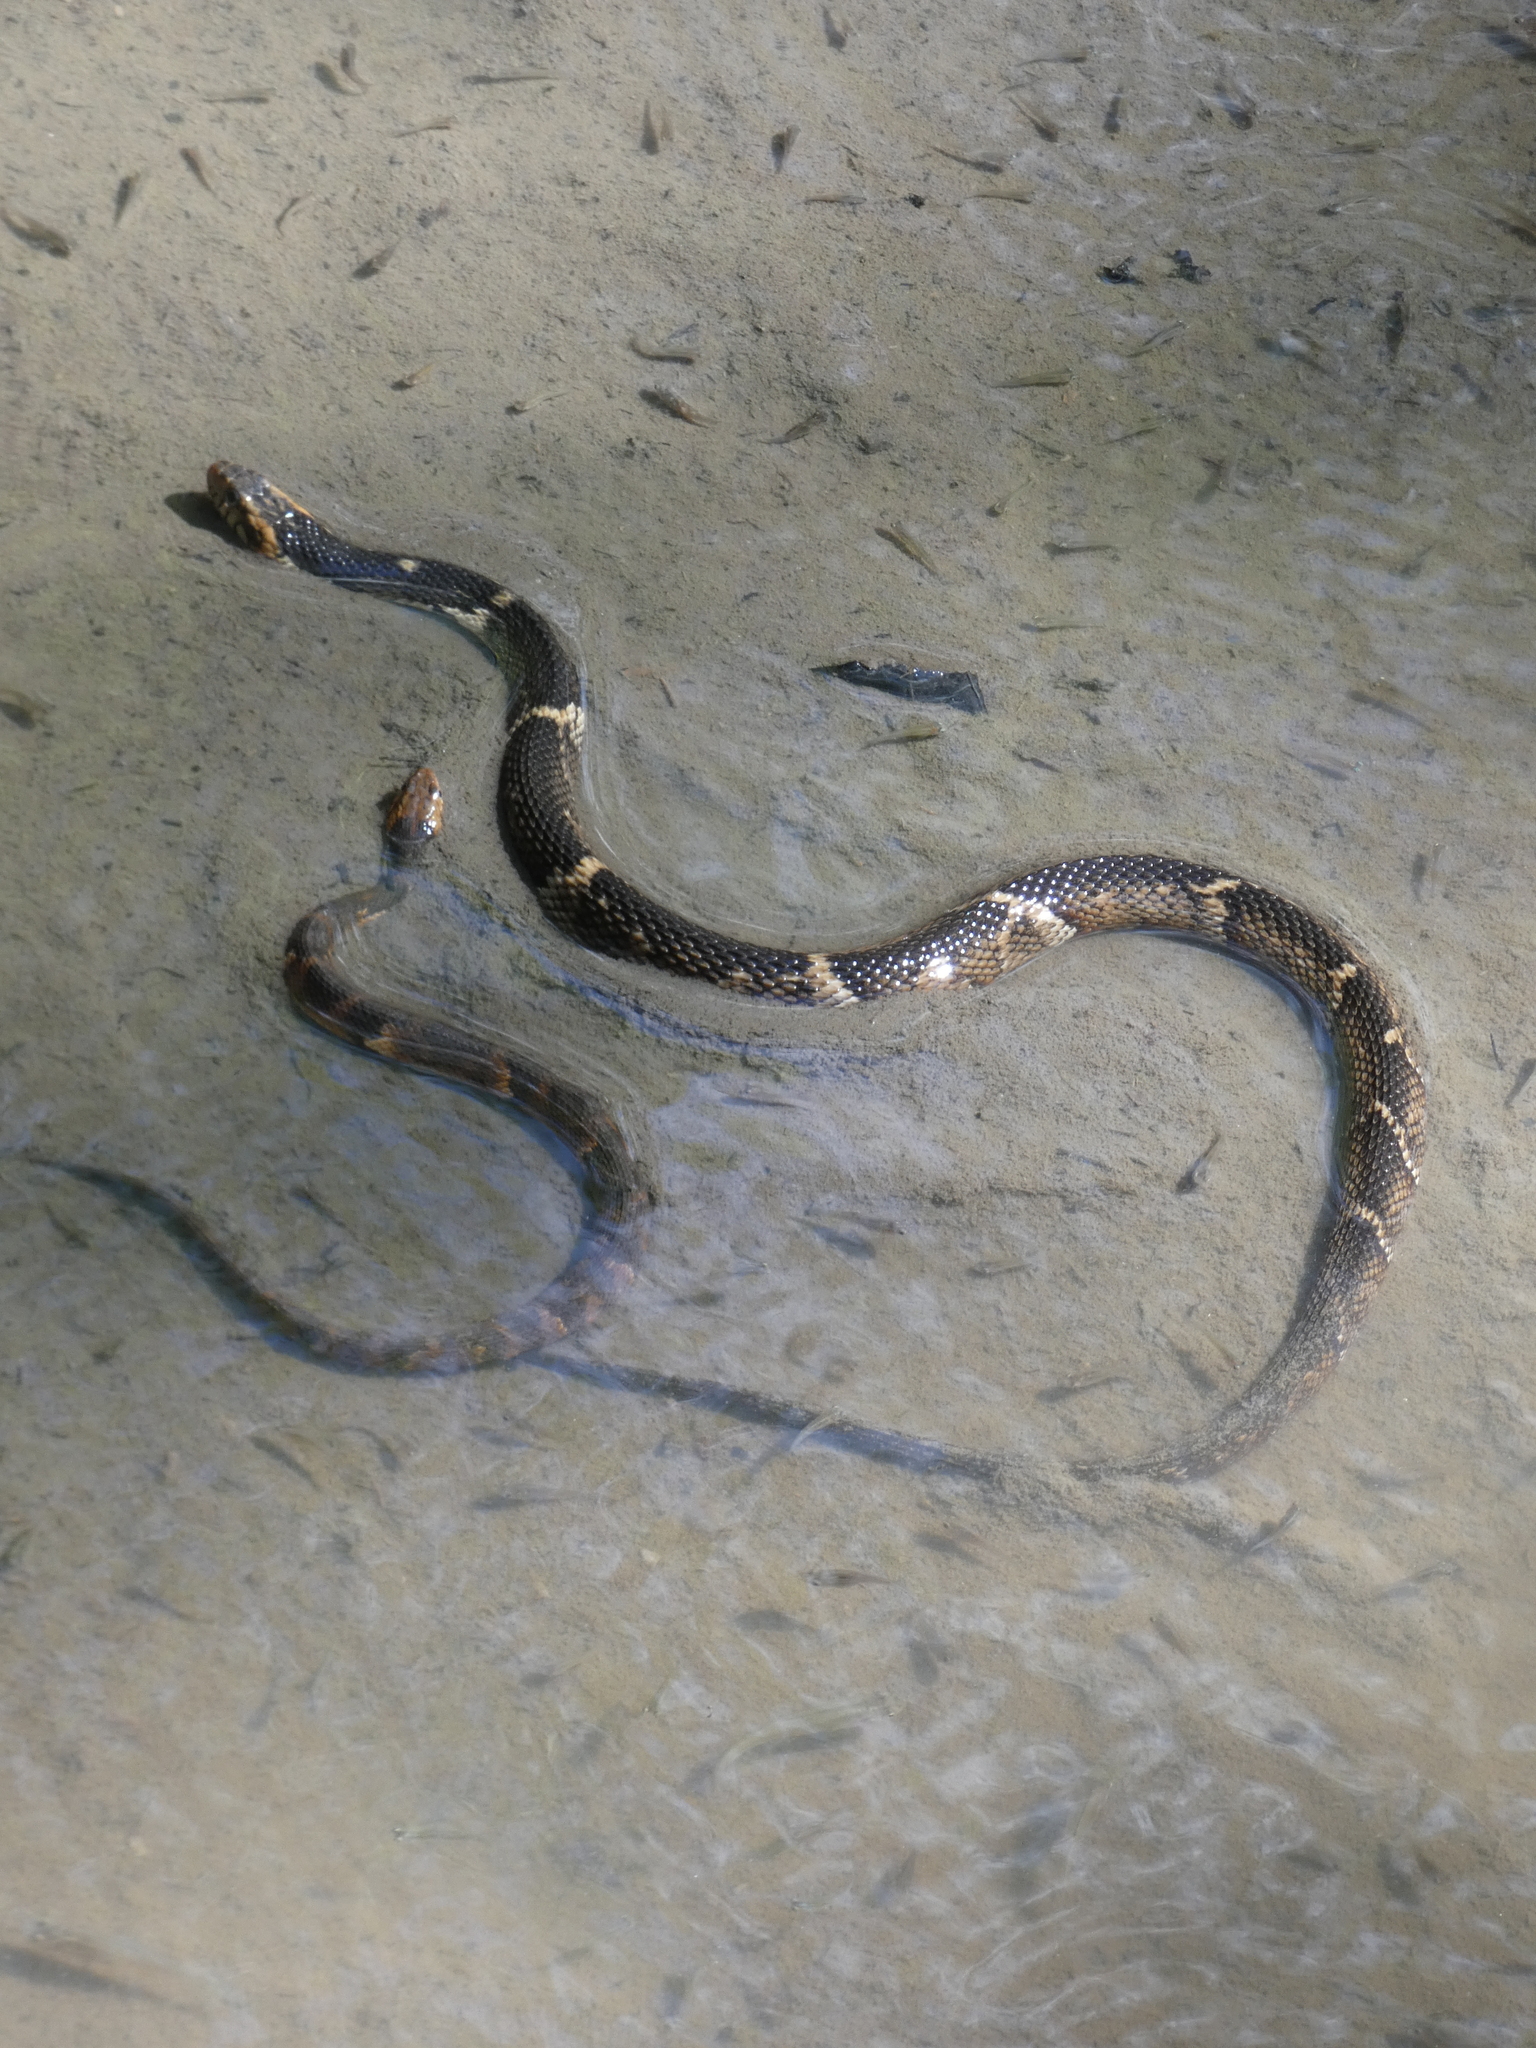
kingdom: Animalia
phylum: Chordata
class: Squamata
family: Colubridae
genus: Nerodia
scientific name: Nerodia fasciata
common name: Southern water snake
